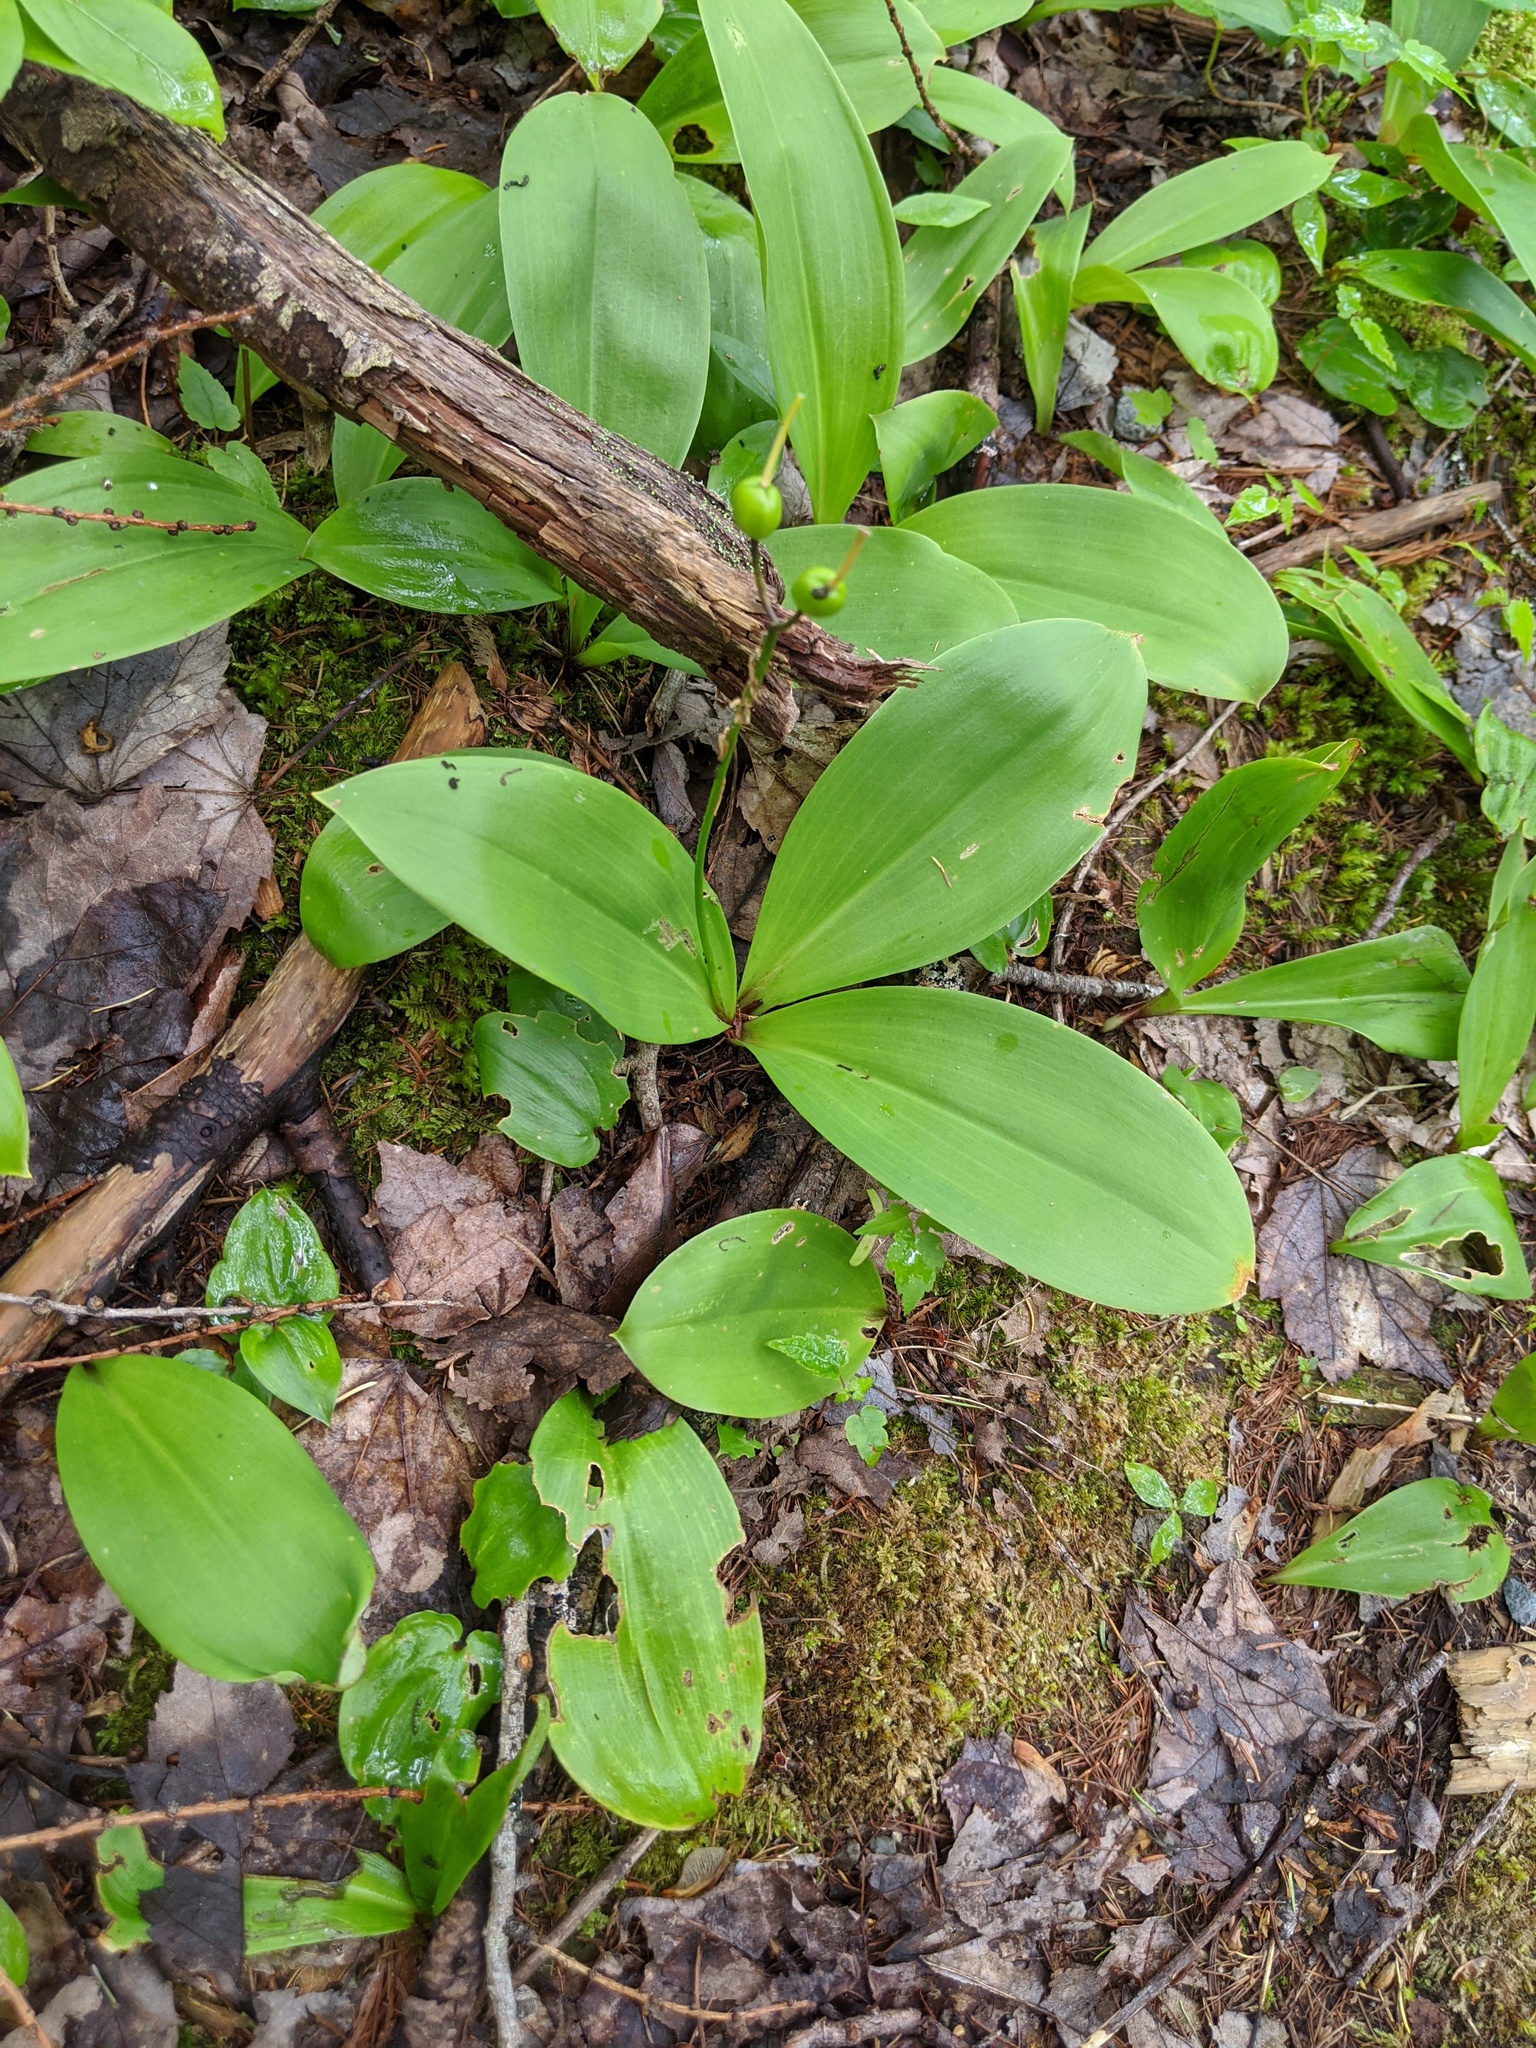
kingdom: Plantae
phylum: Tracheophyta
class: Liliopsida
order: Liliales
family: Liliaceae
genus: Clintonia
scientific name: Clintonia borealis
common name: Yellow clintonia
